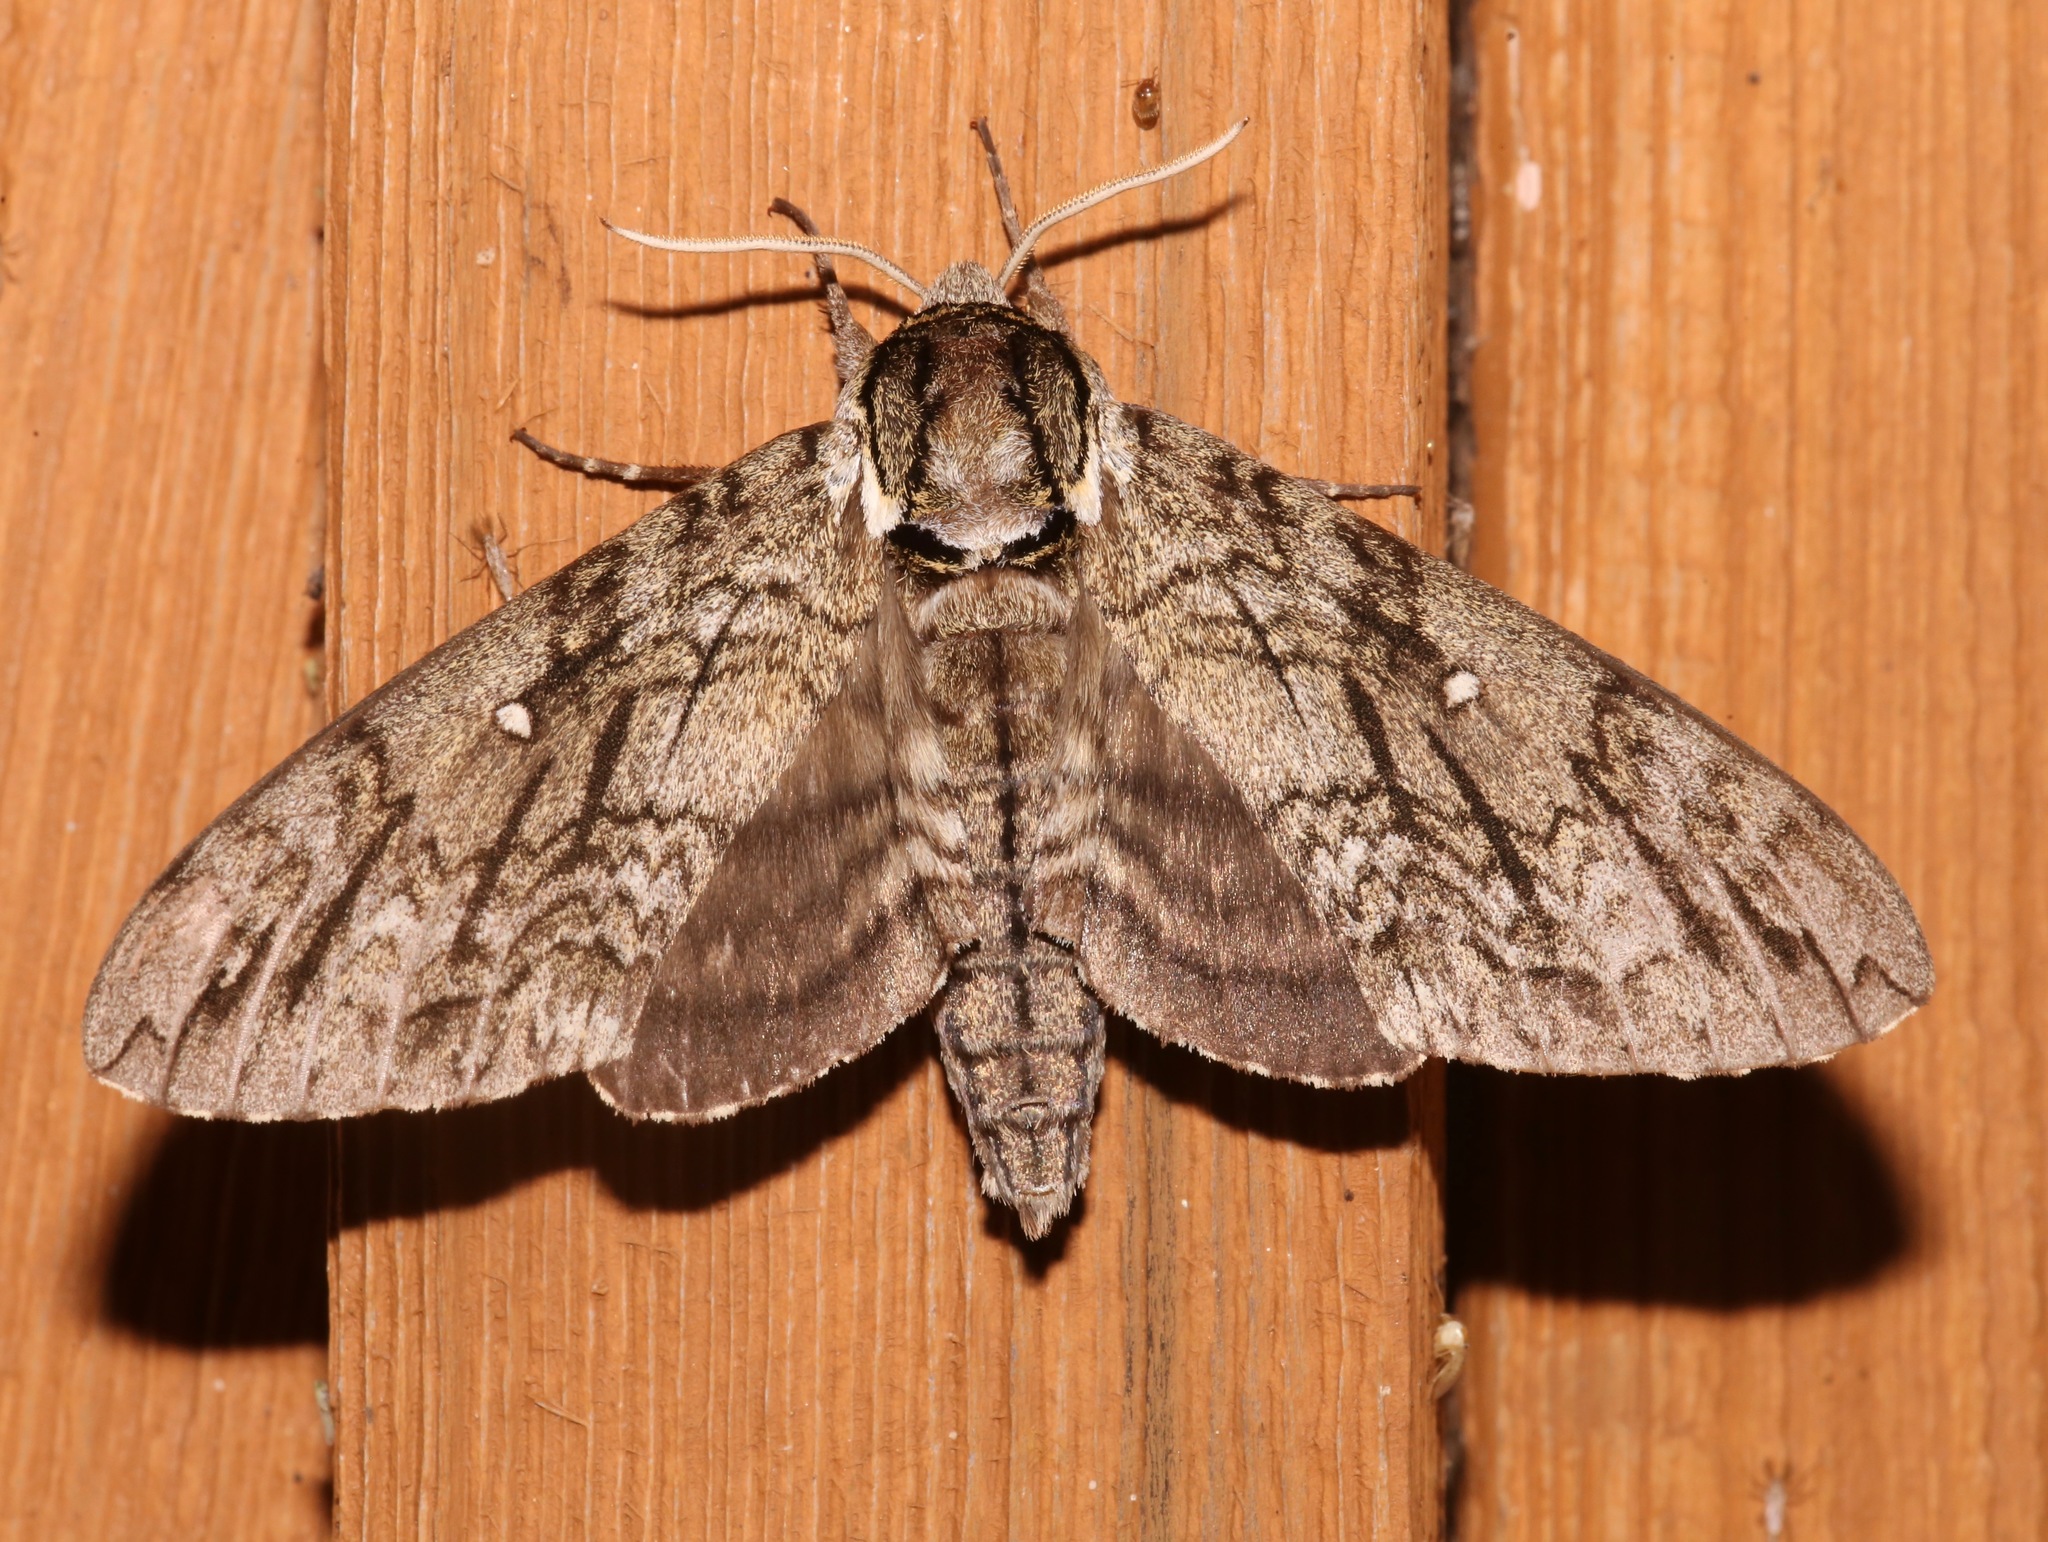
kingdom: Animalia
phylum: Arthropoda
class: Insecta
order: Lepidoptera
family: Sphingidae
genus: Ceratomia
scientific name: Ceratomia undulosa
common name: Waved sphinx
